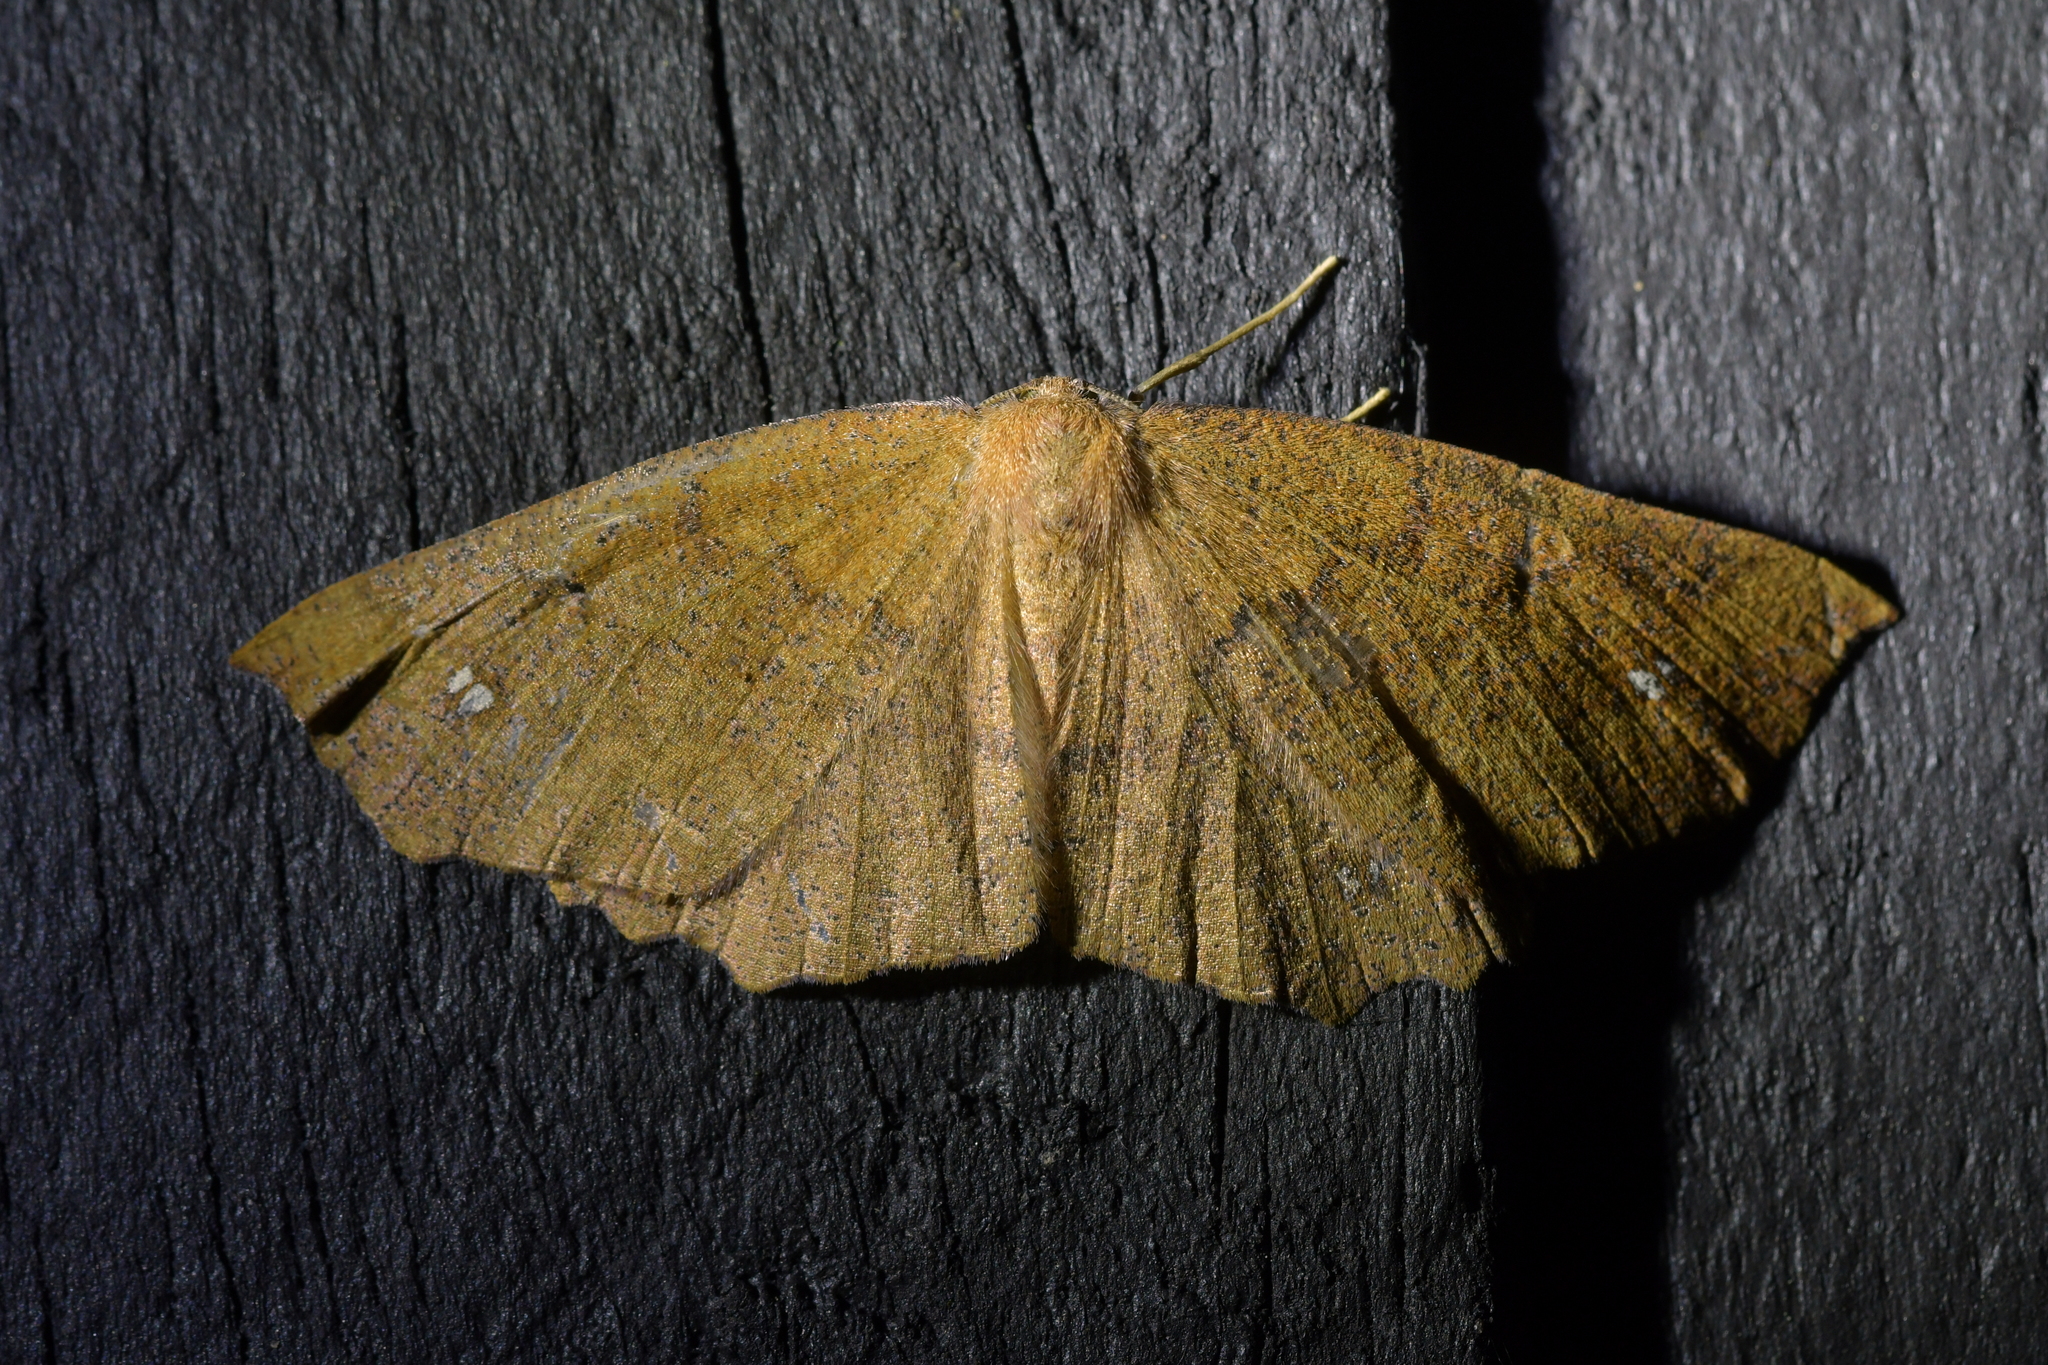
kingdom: Animalia
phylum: Arthropoda
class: Insecta
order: Lepidoptera
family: Geometridae
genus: Xyridacma
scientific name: Xyridacma ustaria
